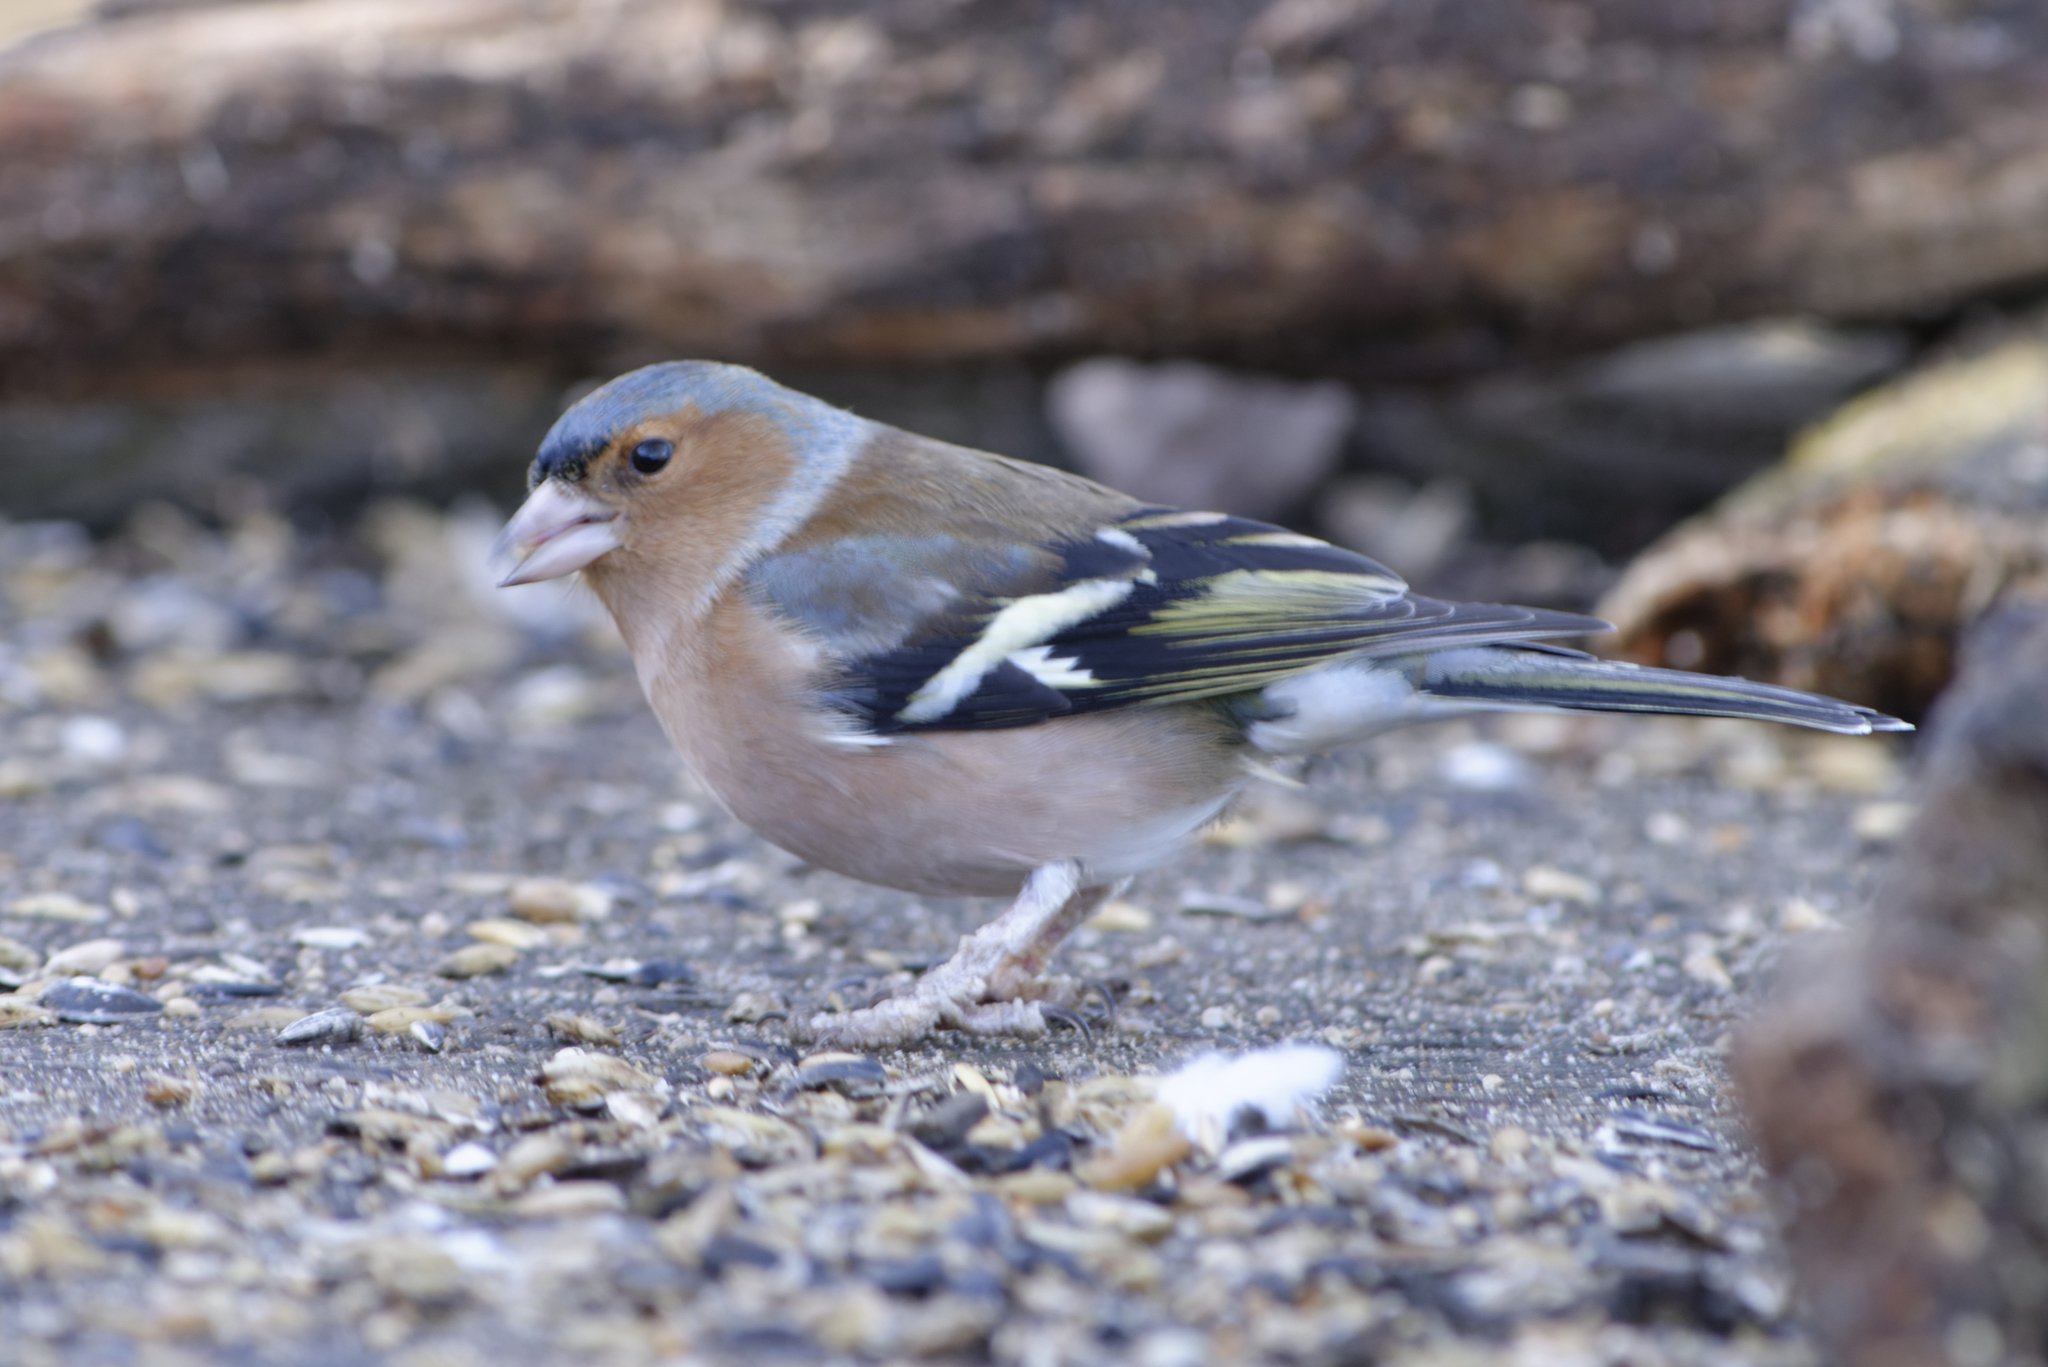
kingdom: Animalia
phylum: Chordata
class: Aves
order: Passeriformes
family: Fringillidae
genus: Fringilla
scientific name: Fringilla coelebs
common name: Common chaffinch
